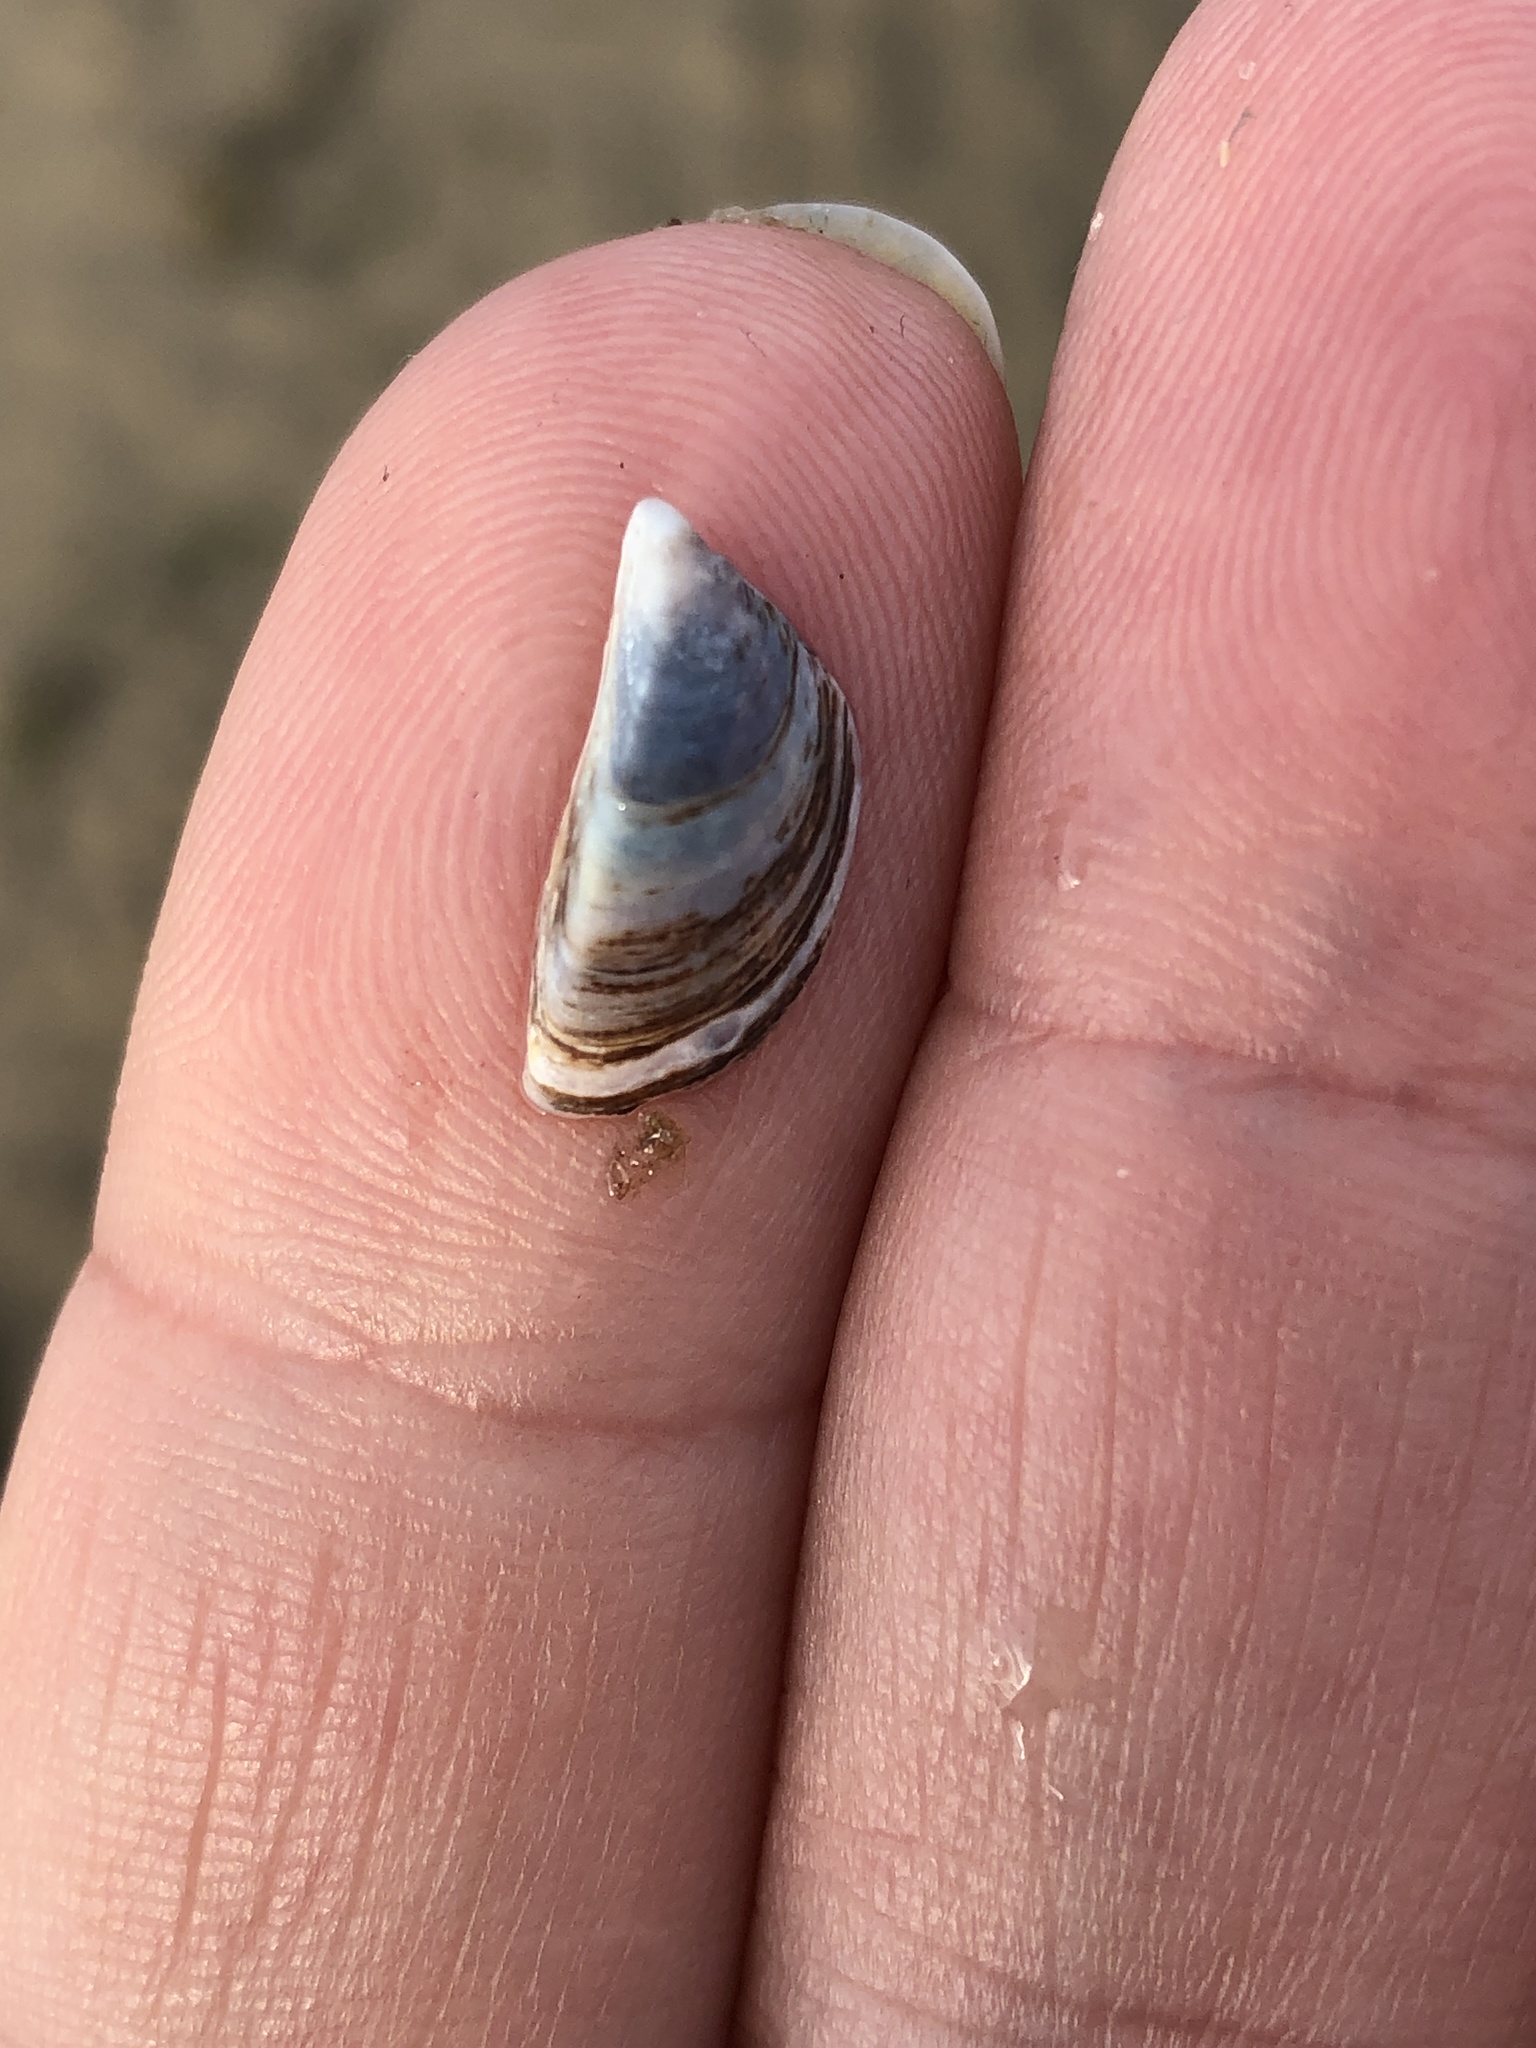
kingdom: Animalia
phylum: Mollusca
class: Bivalvia
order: Myida
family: Dreissenidae
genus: Dreissena
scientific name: Dreissena polymorpha
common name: Zebra mussel
